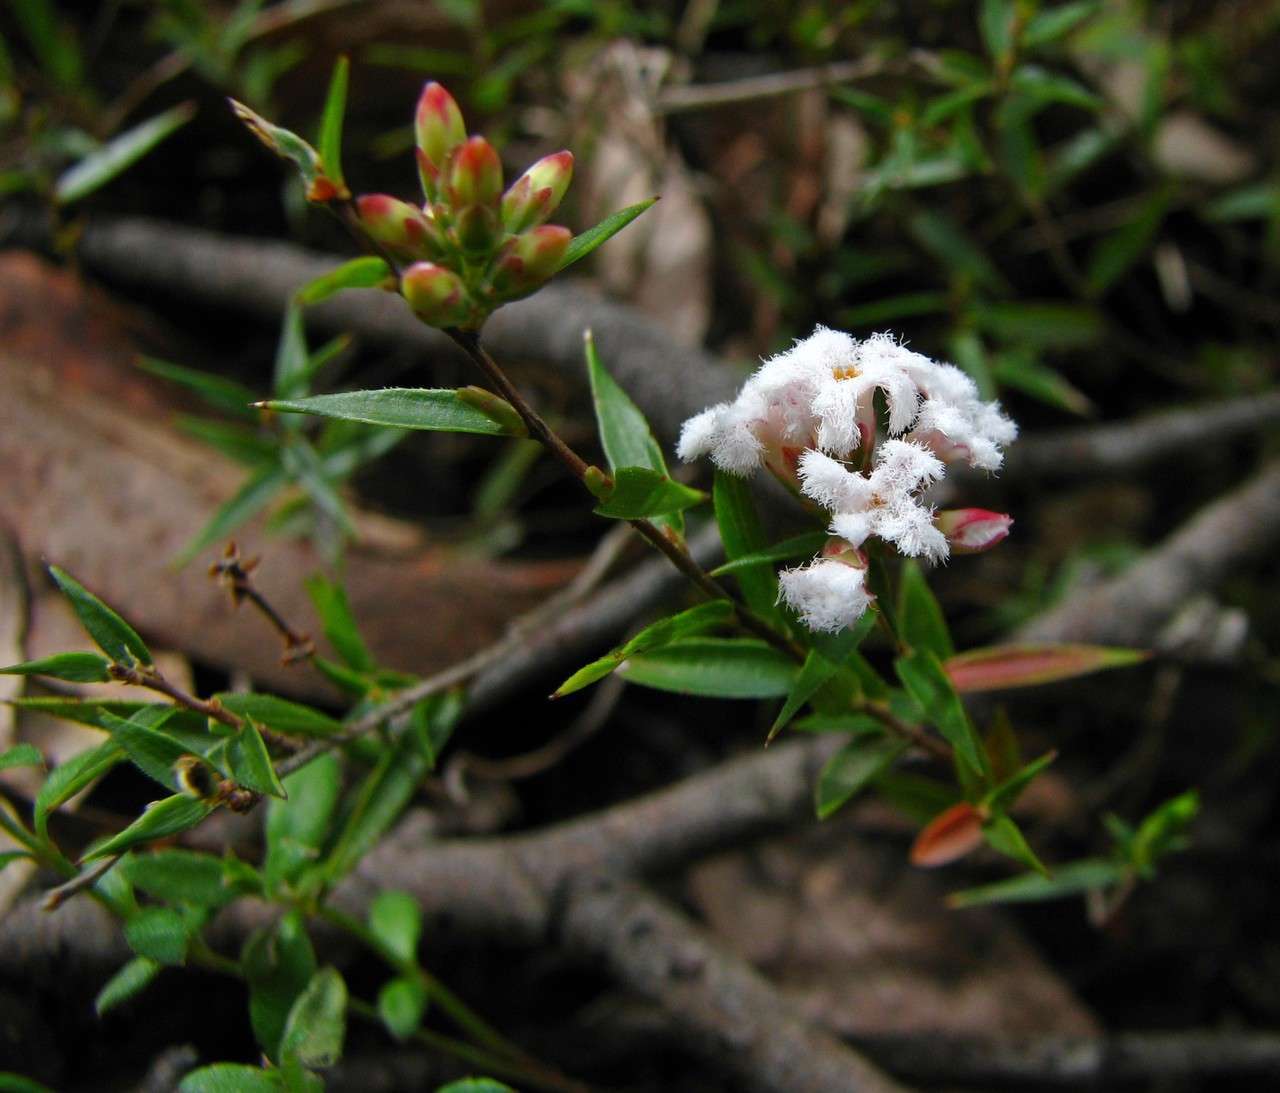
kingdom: Plantae
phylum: Tracheophyta
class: Magnoliopsida
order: Ericales
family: Ericaceae
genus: Leucopogon
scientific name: Leucopogon virgatus
